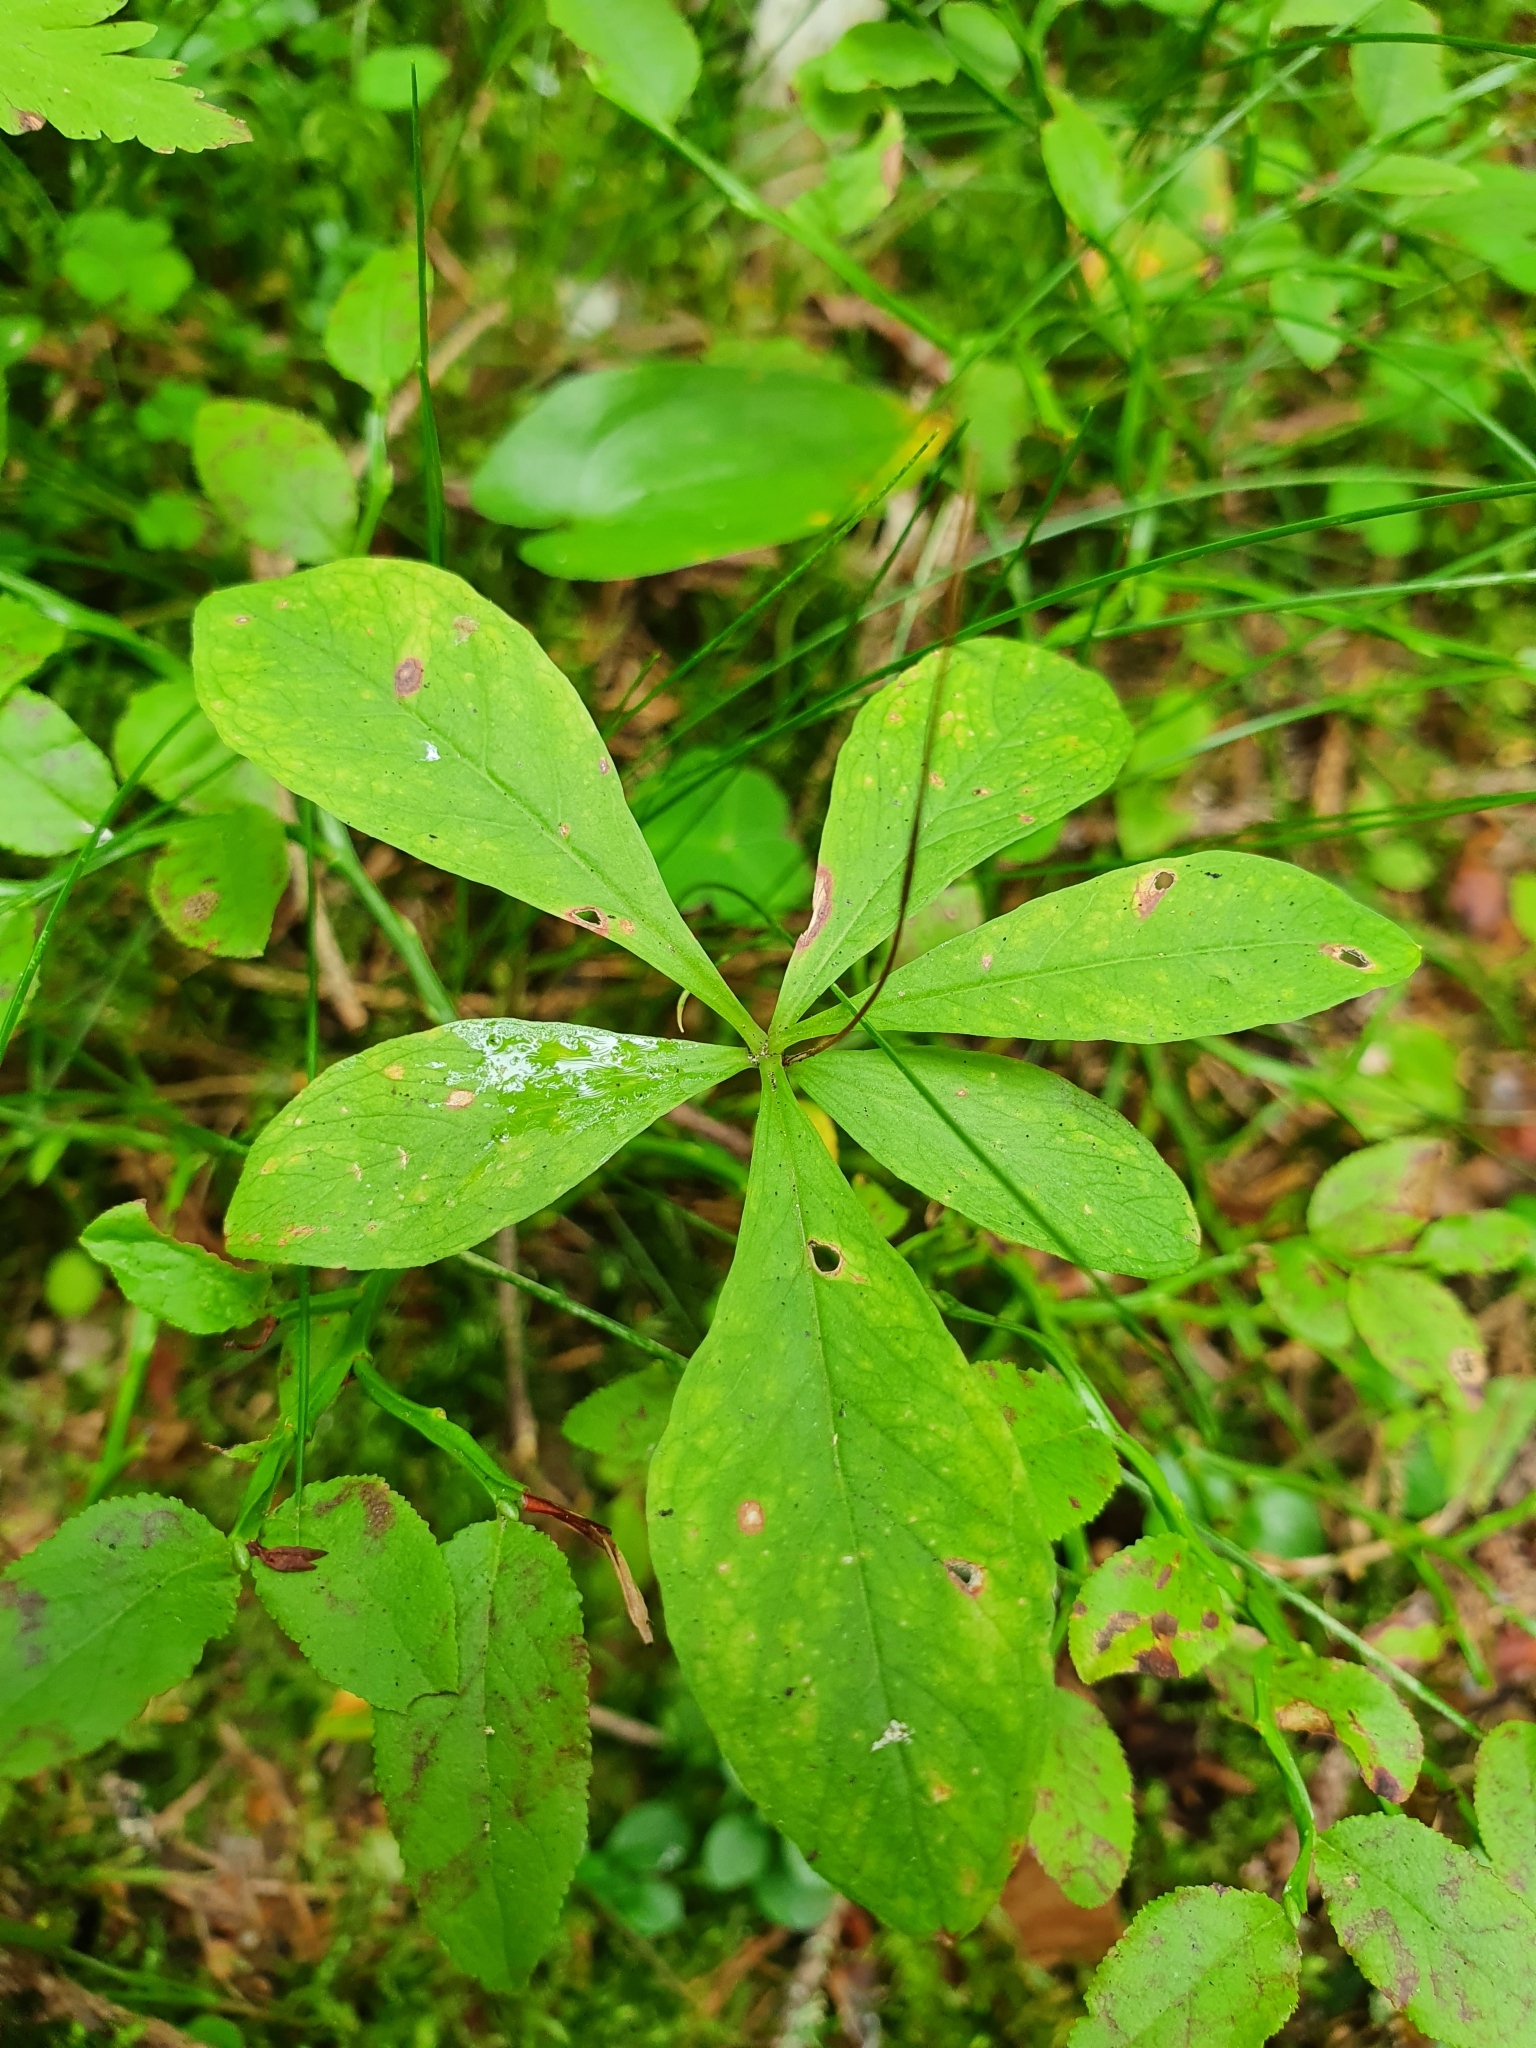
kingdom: Plantae
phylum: Tracheophyta
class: Magnoliopsida
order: Ericales
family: Primulaceae
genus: Lysimachia
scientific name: Lysimachia europaea
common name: Arctic starflower
